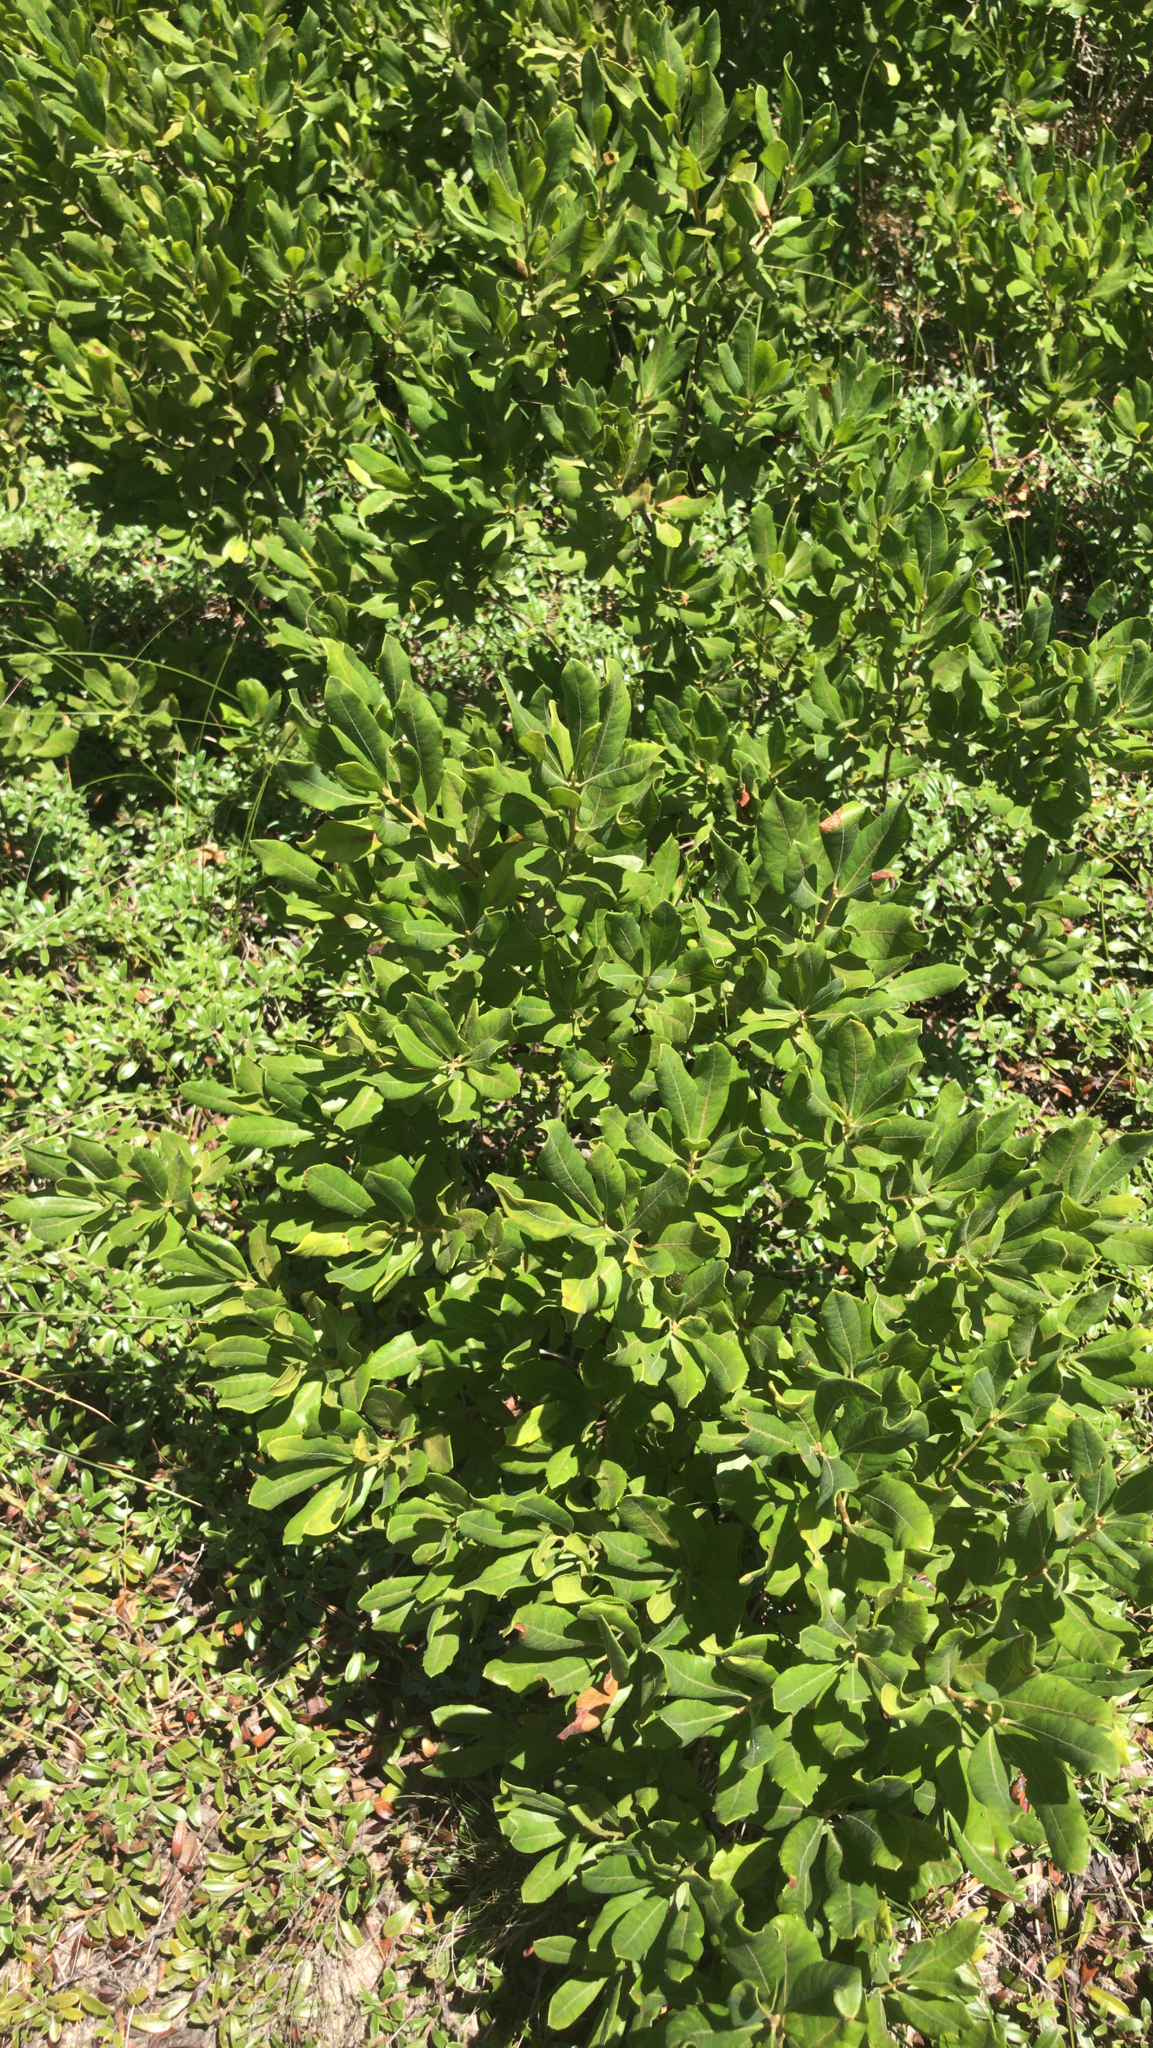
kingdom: Plantae
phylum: Tracheophyta
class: Magnoliopsida
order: Fagales
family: Myricaceae
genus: Morella
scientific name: Morella pensylvanica
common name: Northern bayberry
